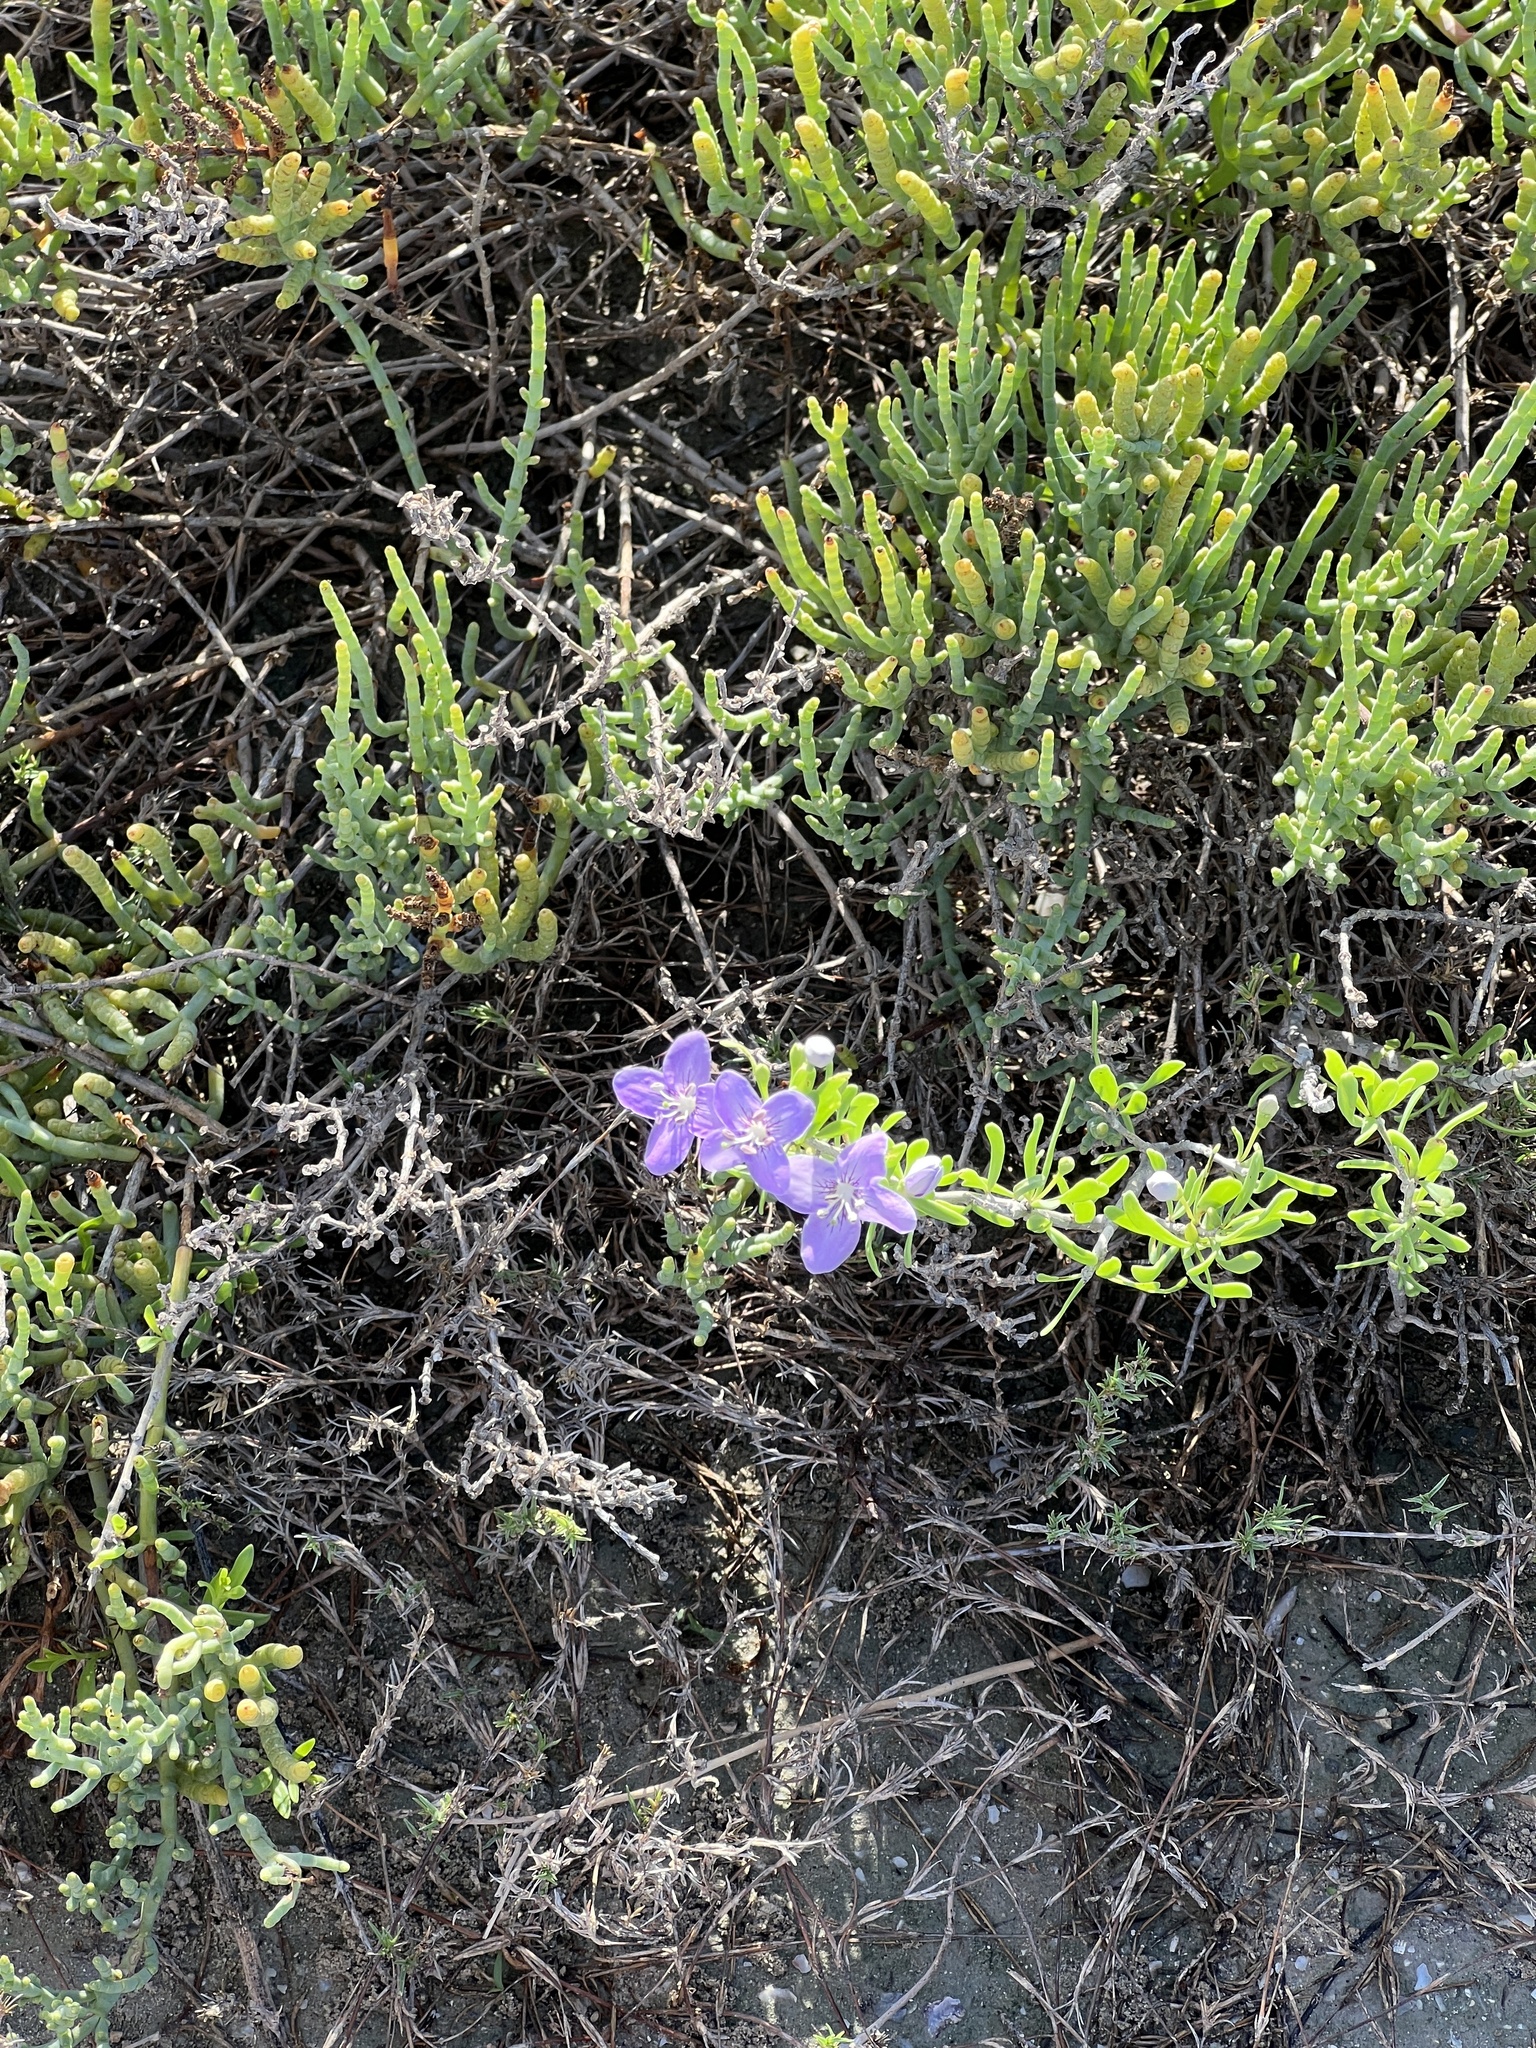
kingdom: Plantae
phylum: Tracheophyta
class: Magnoliopsida
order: Solanales
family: Solanaceae
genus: Lycium
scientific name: Lycium carolinianum
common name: Christmasberry
